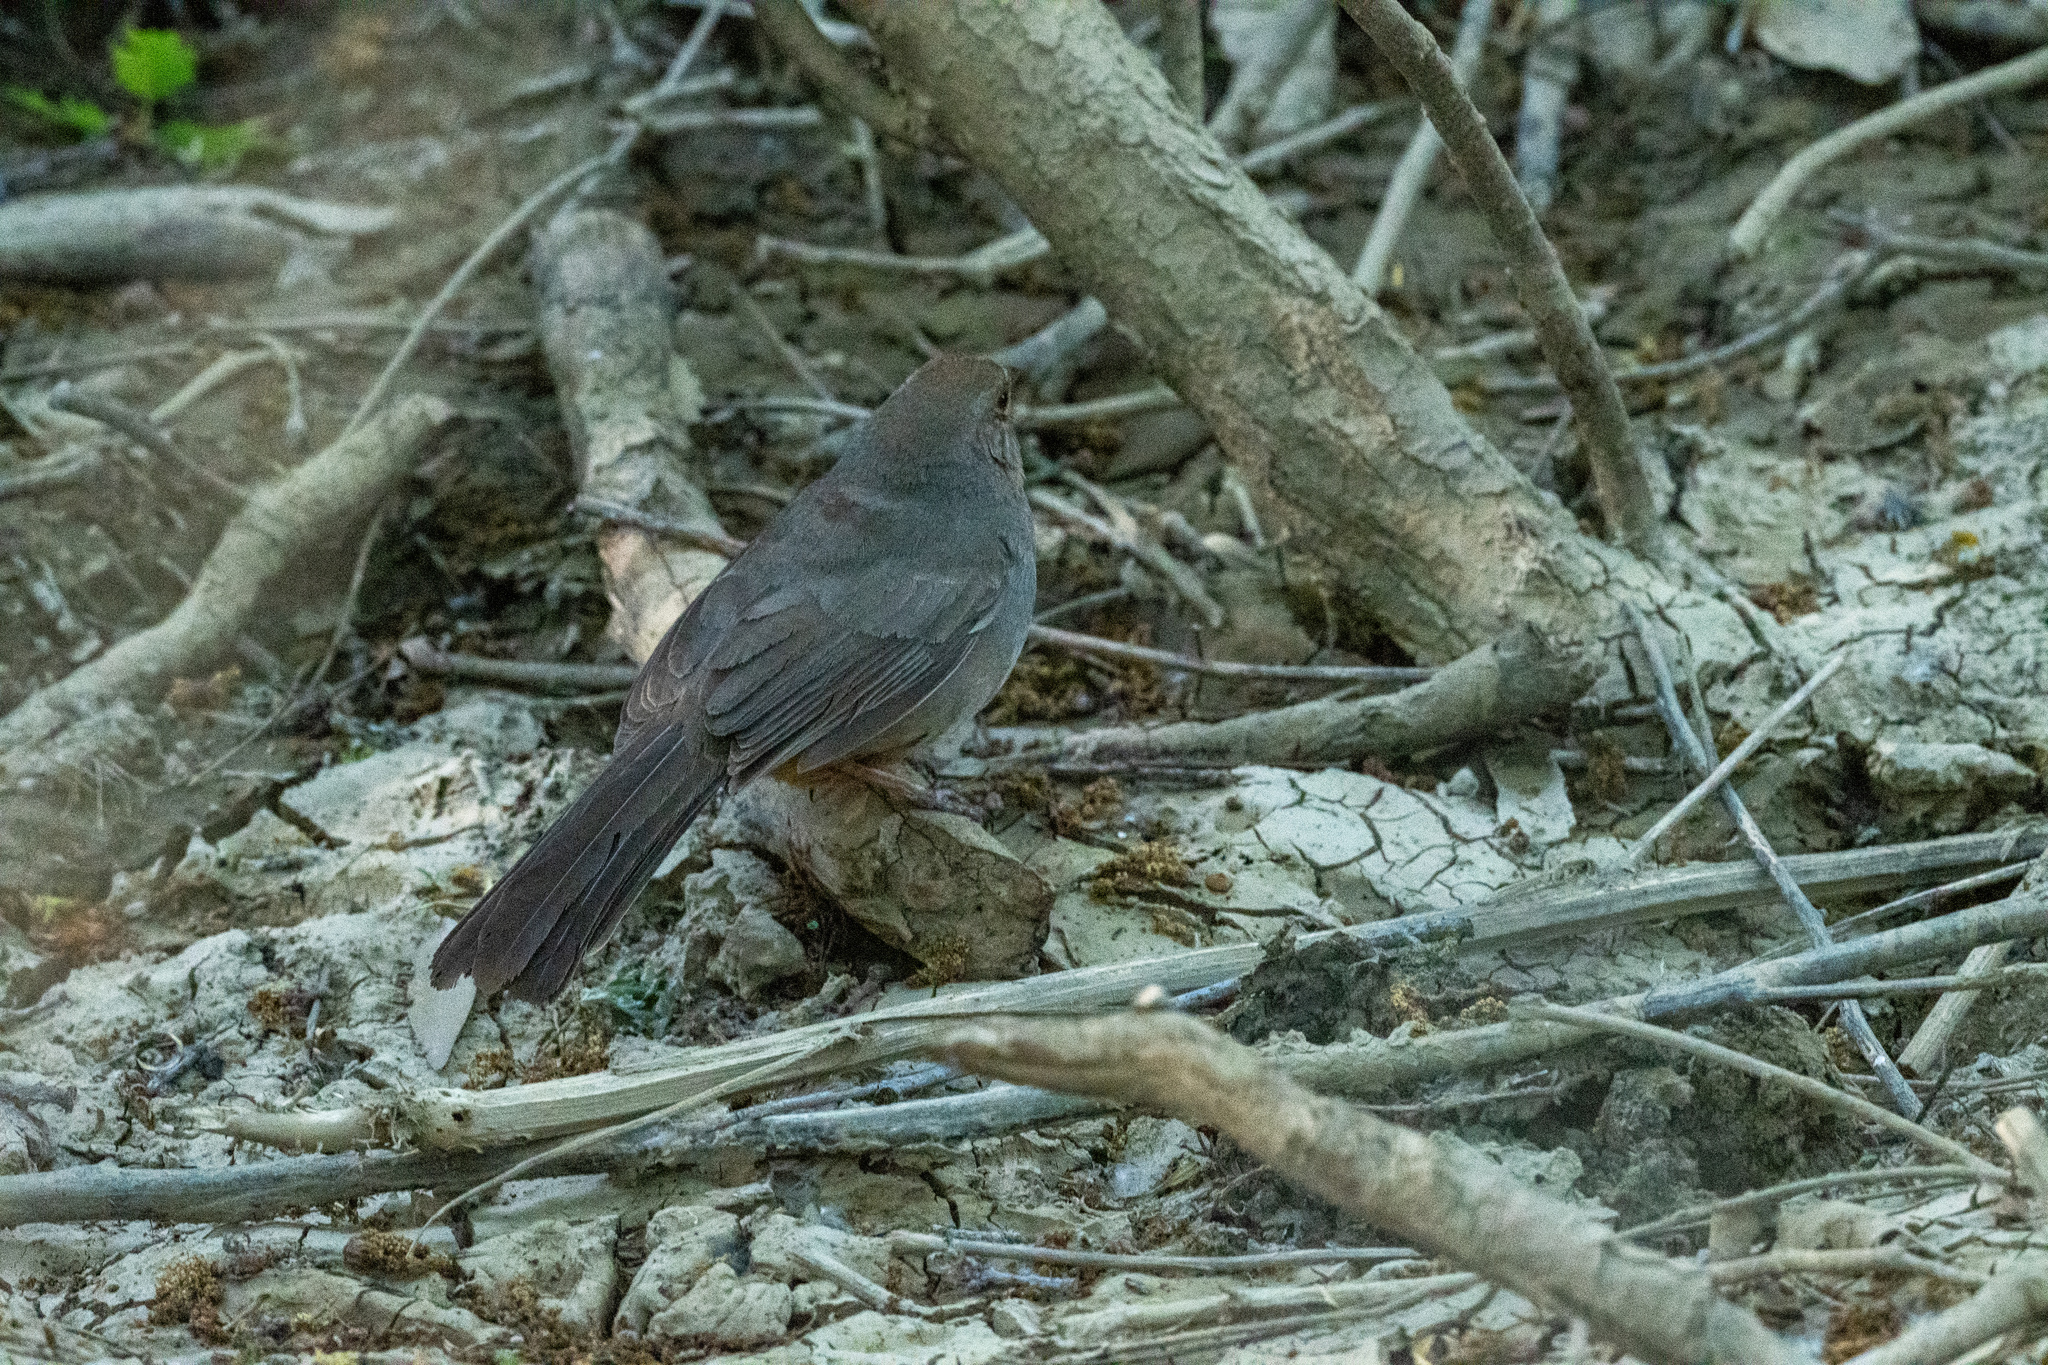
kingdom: Animalia
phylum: Chordata
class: Aves
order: Passeriformes
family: Passerellidae
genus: Melozone
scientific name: Melozone crissalis
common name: California towhee
